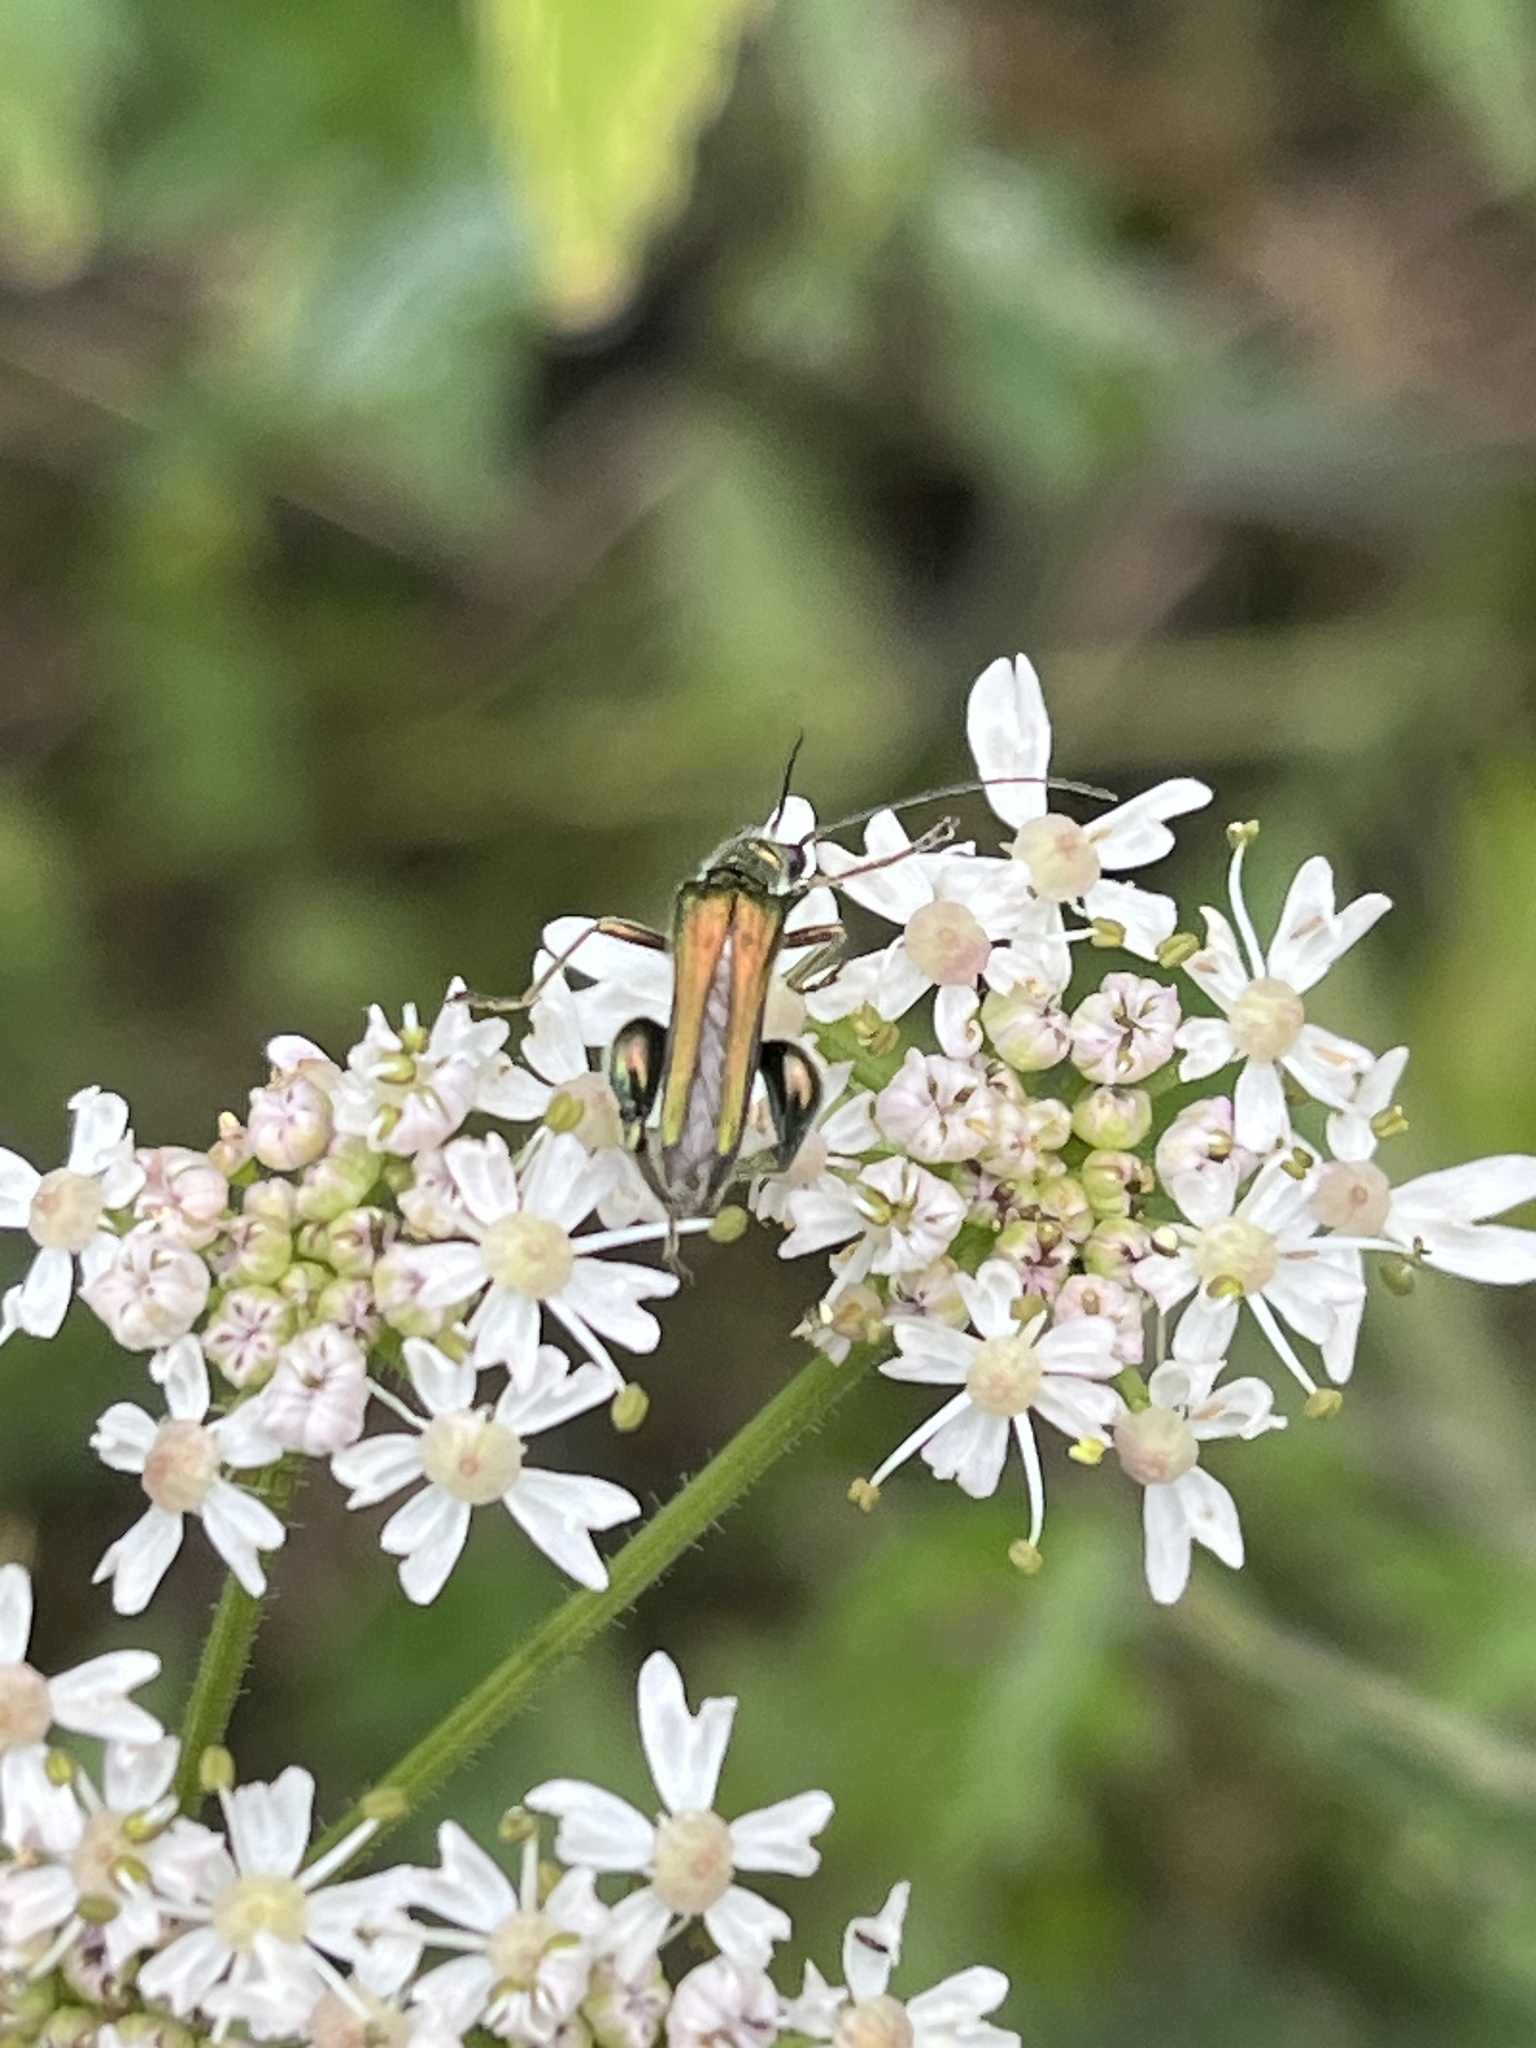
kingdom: Animalia
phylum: Arthropoda
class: Insecta
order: Coleoptera
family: Oedemeridae
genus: Oedemera
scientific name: Oedemera nobilis
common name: Swollen-thighed beetle
